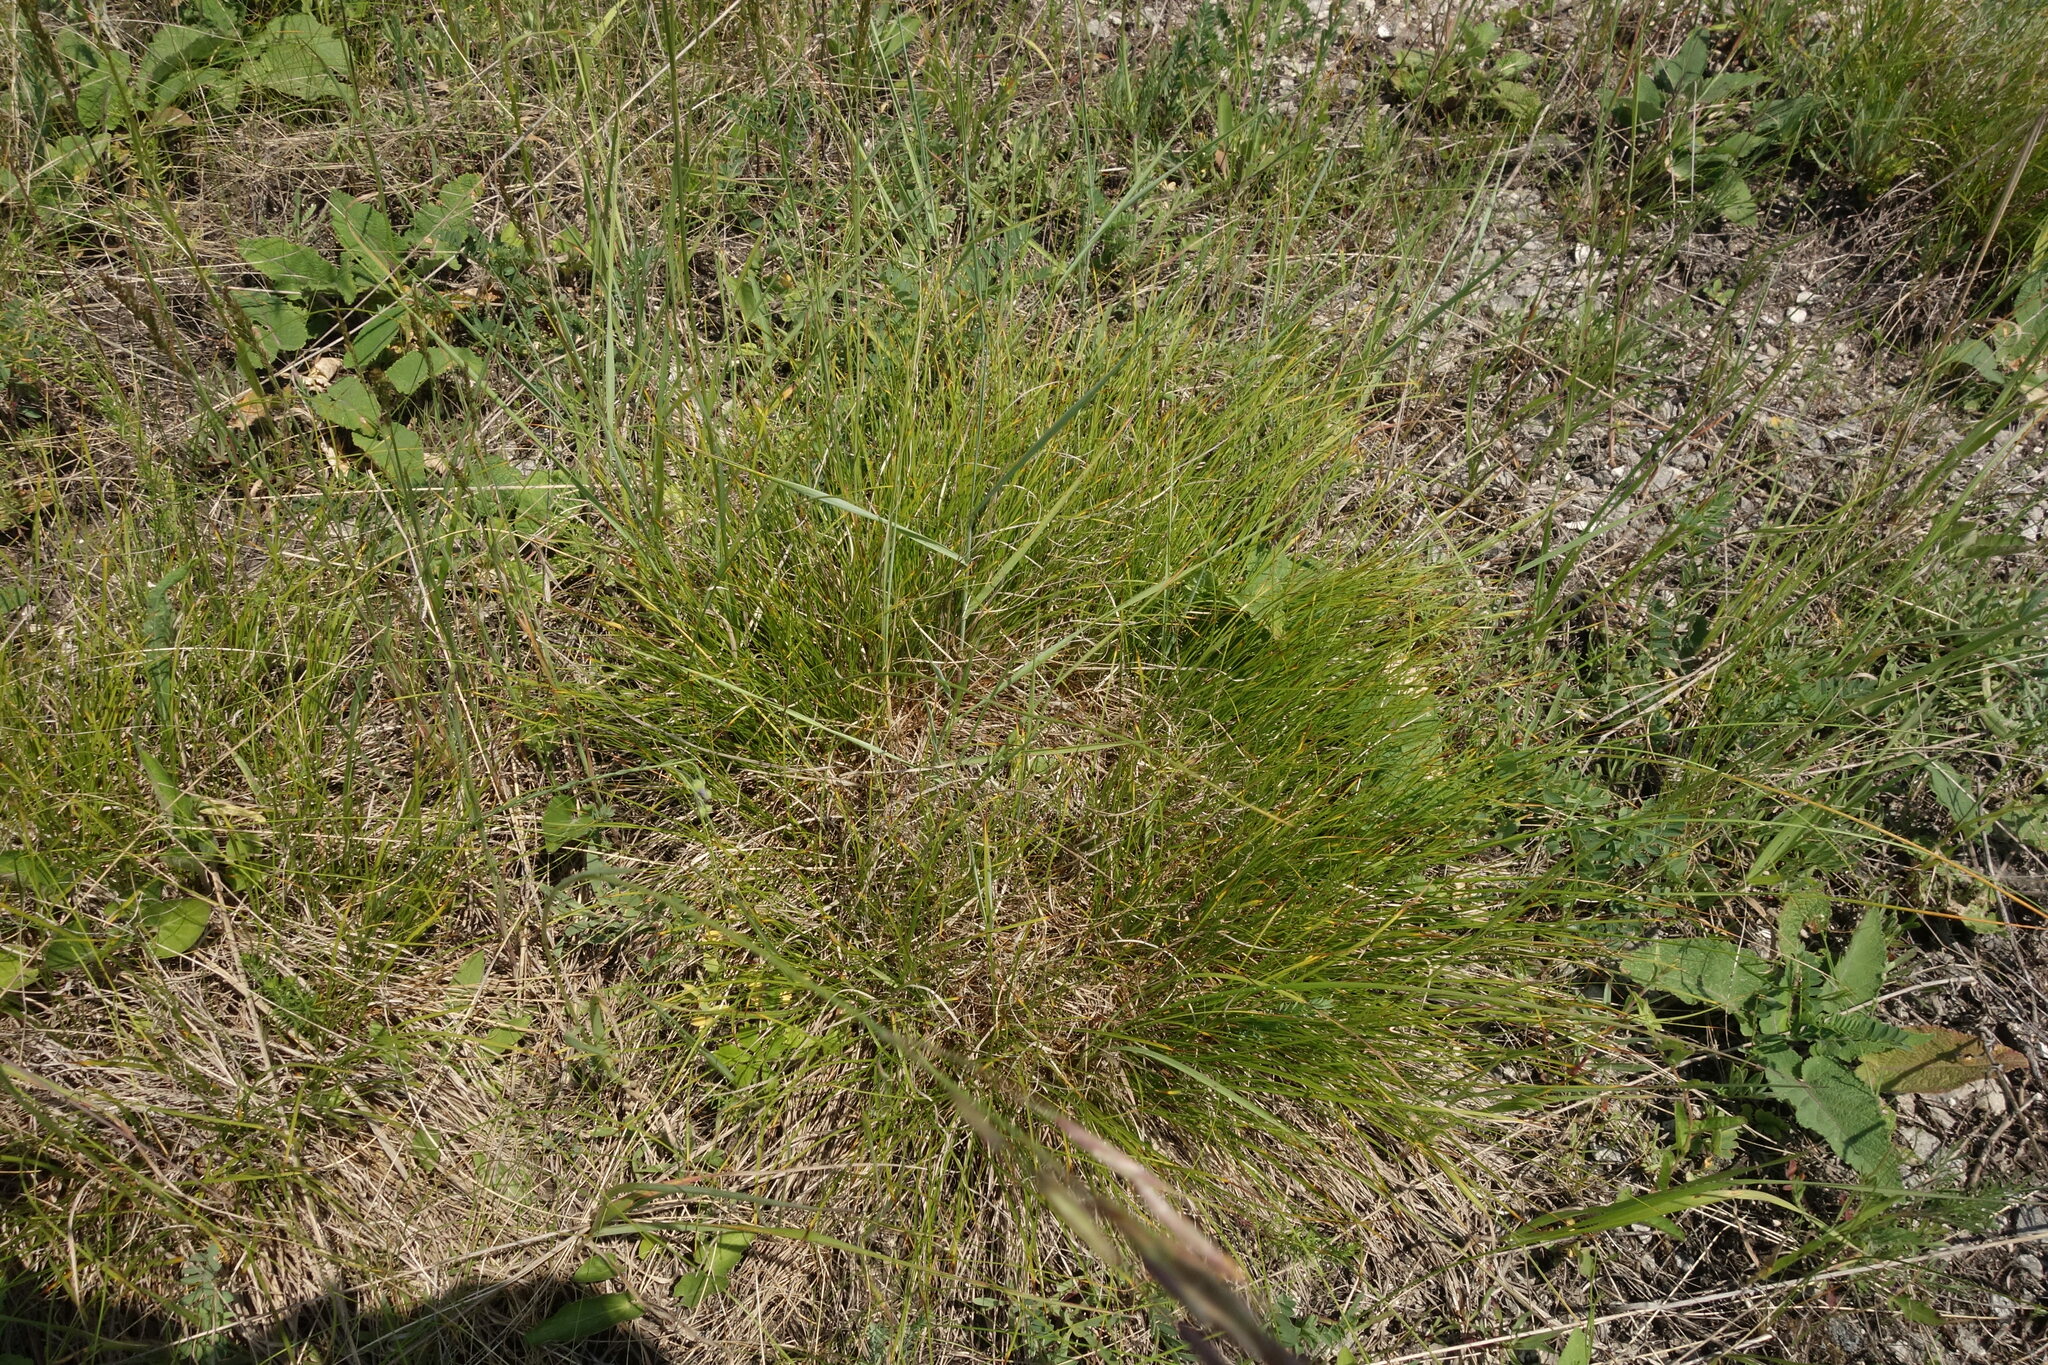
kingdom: Plantae
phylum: Tracheophyta
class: Liliopsida
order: Poales
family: Cyperaceae
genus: Carex
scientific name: Carex humilis
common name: Dwarf sedge
